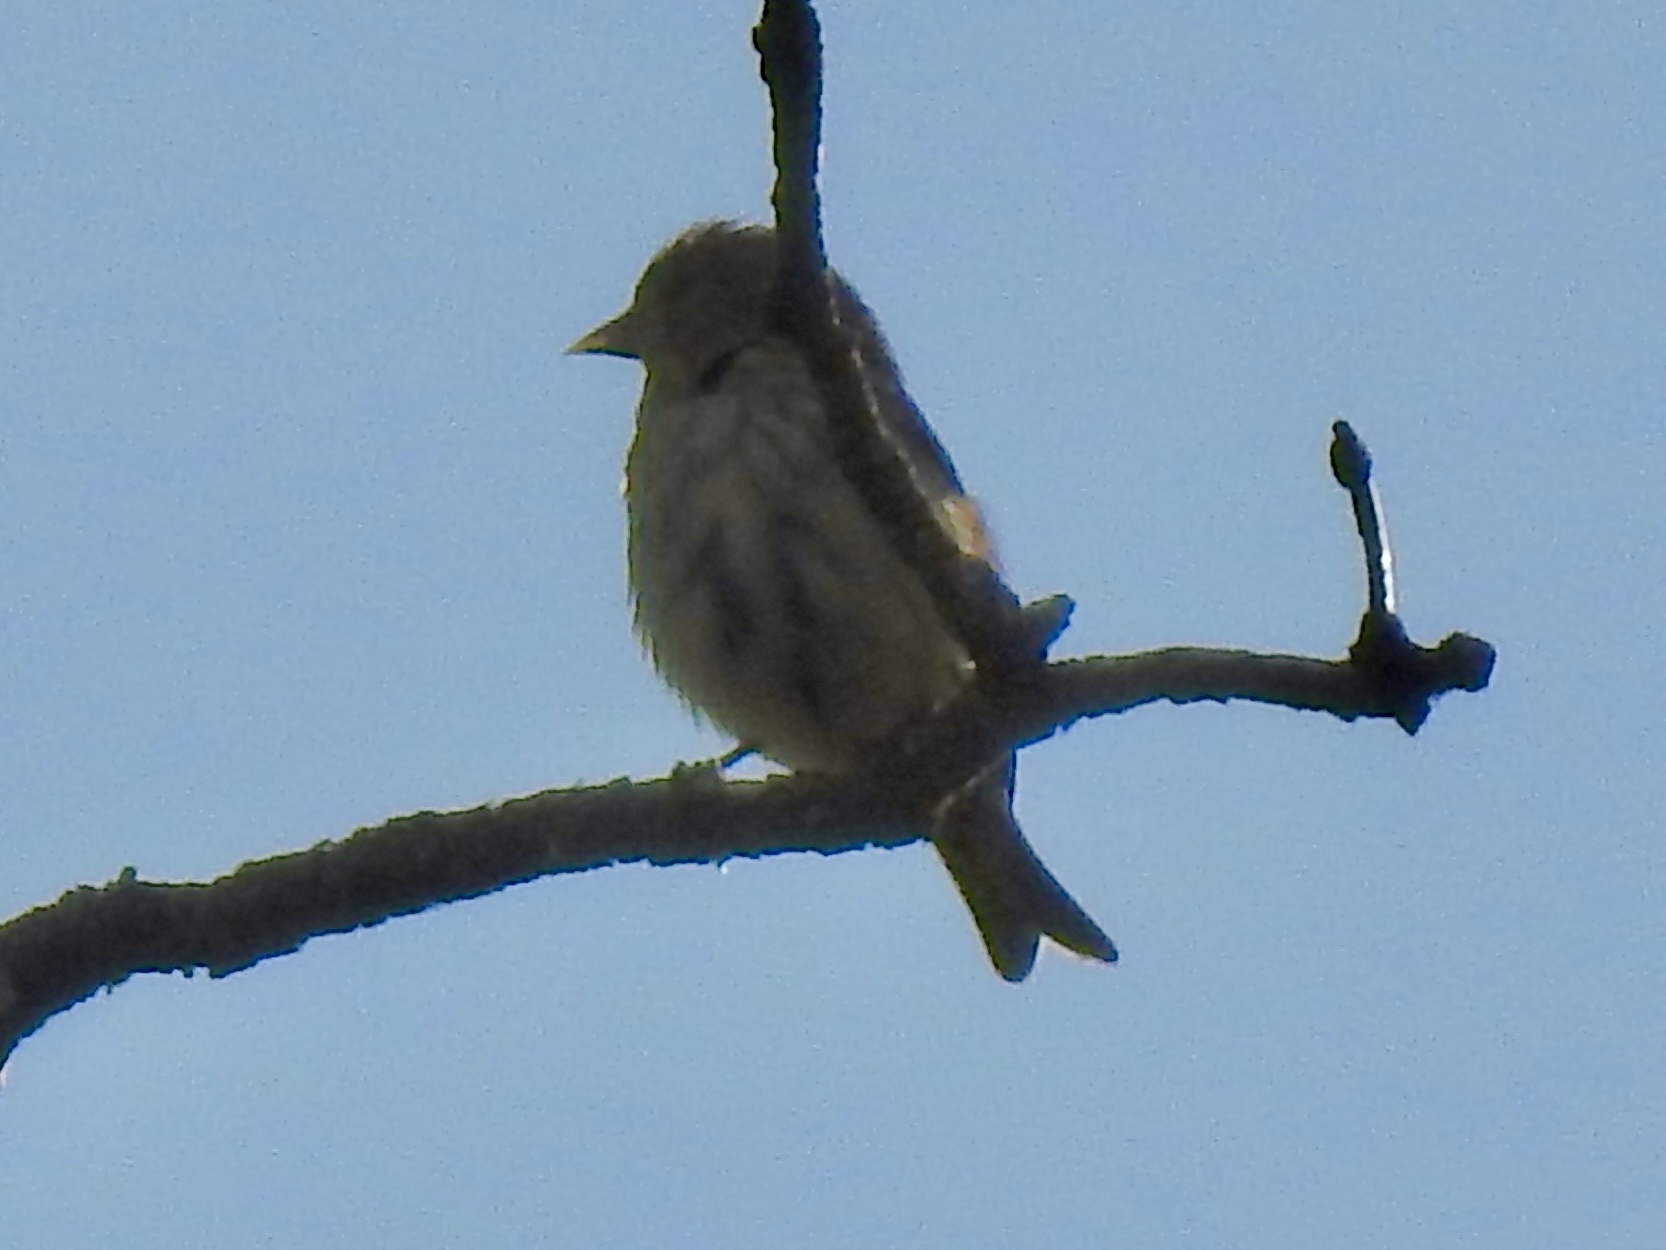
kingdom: Animalia
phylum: Chordata
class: Aves
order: Passeriformes
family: Fringillidae
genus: Spinus
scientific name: Spinus pinus
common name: Pine siskin
